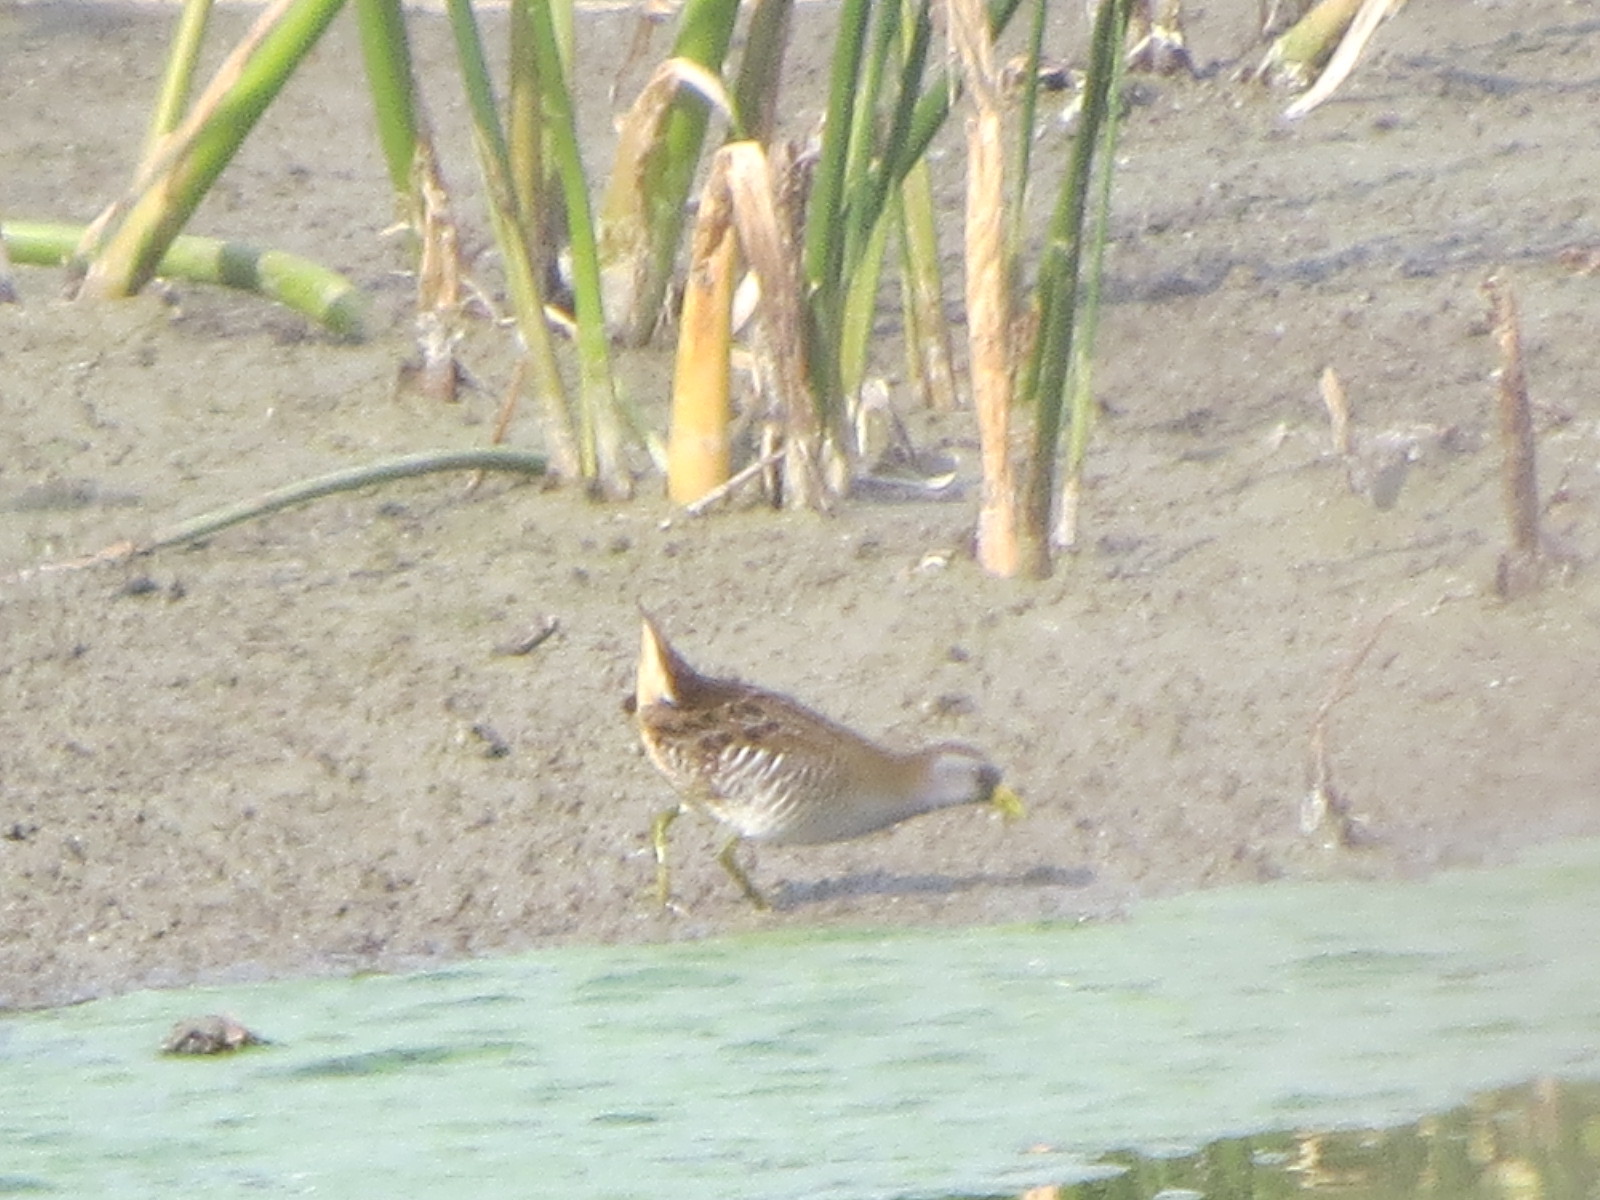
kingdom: Animalia
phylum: Chordata
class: Aves
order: Gruiformes
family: Rallidae
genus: Porzana
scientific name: Porzana carolina
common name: Sora
